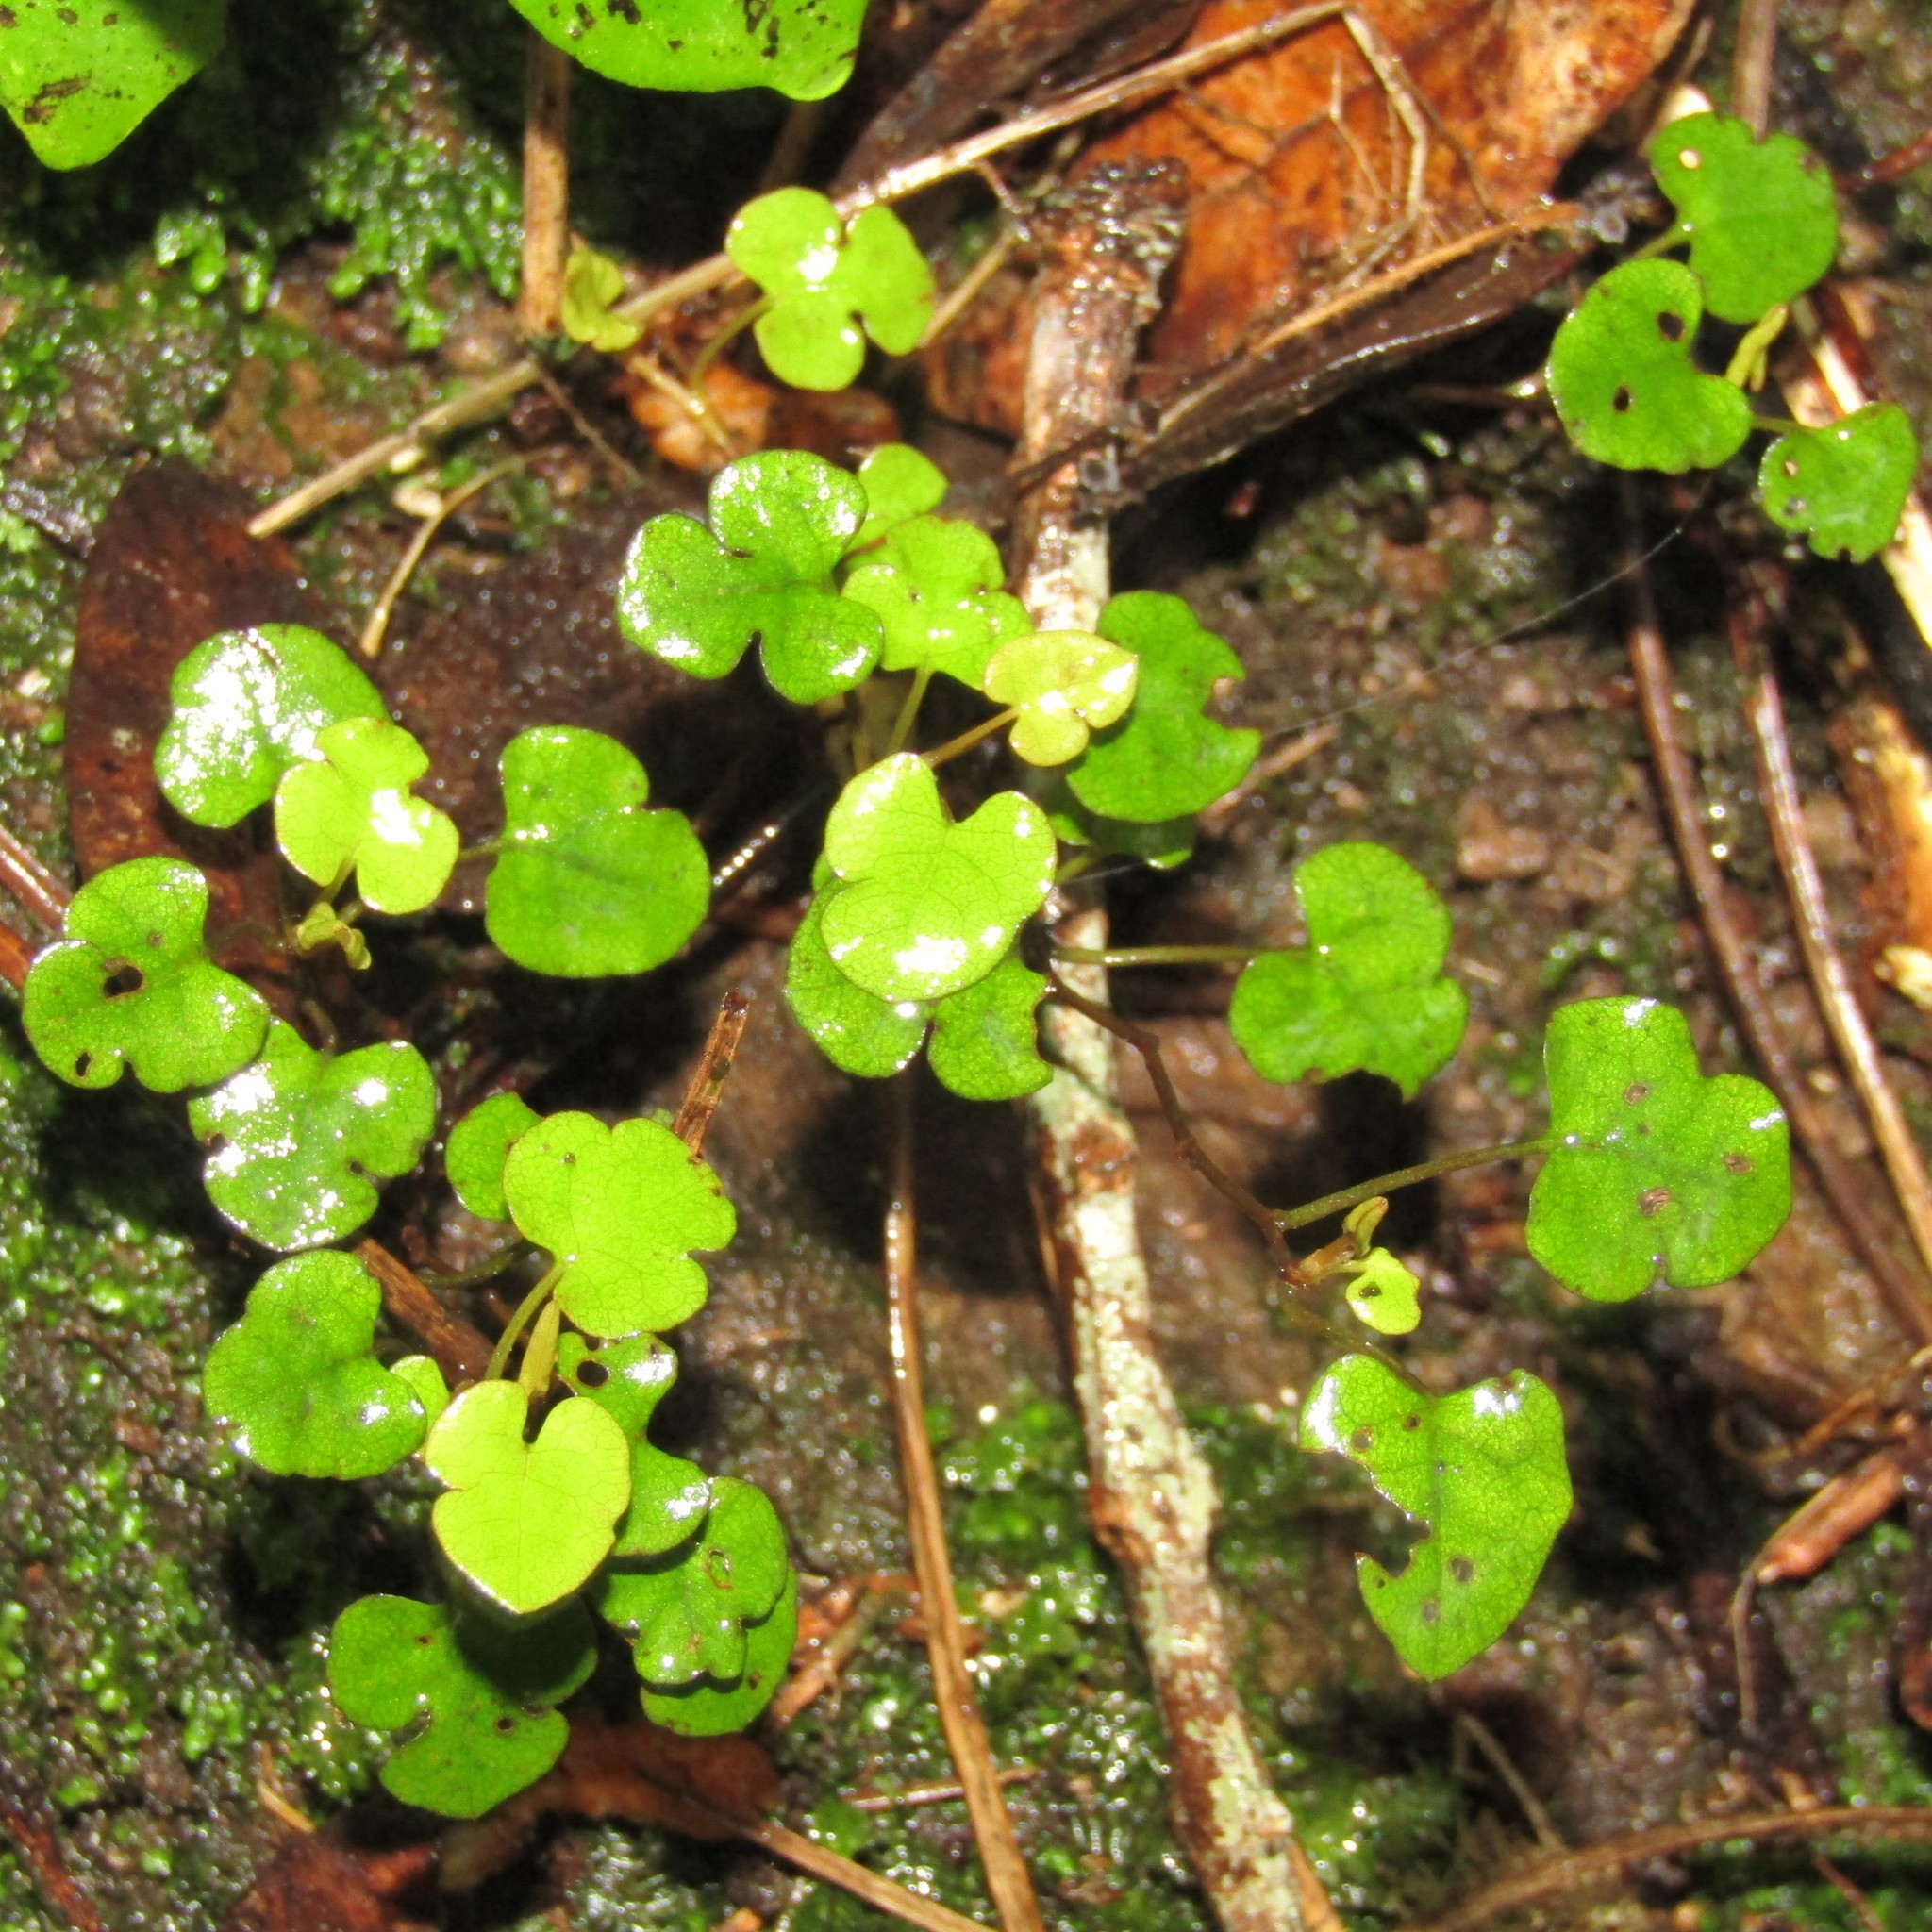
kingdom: Plantae
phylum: Tracheophyta
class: Magnoliopsida
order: Caryophyllales
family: Polygonaceae
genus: Muehlenbeckia
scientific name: Muehlenbeckia australis
